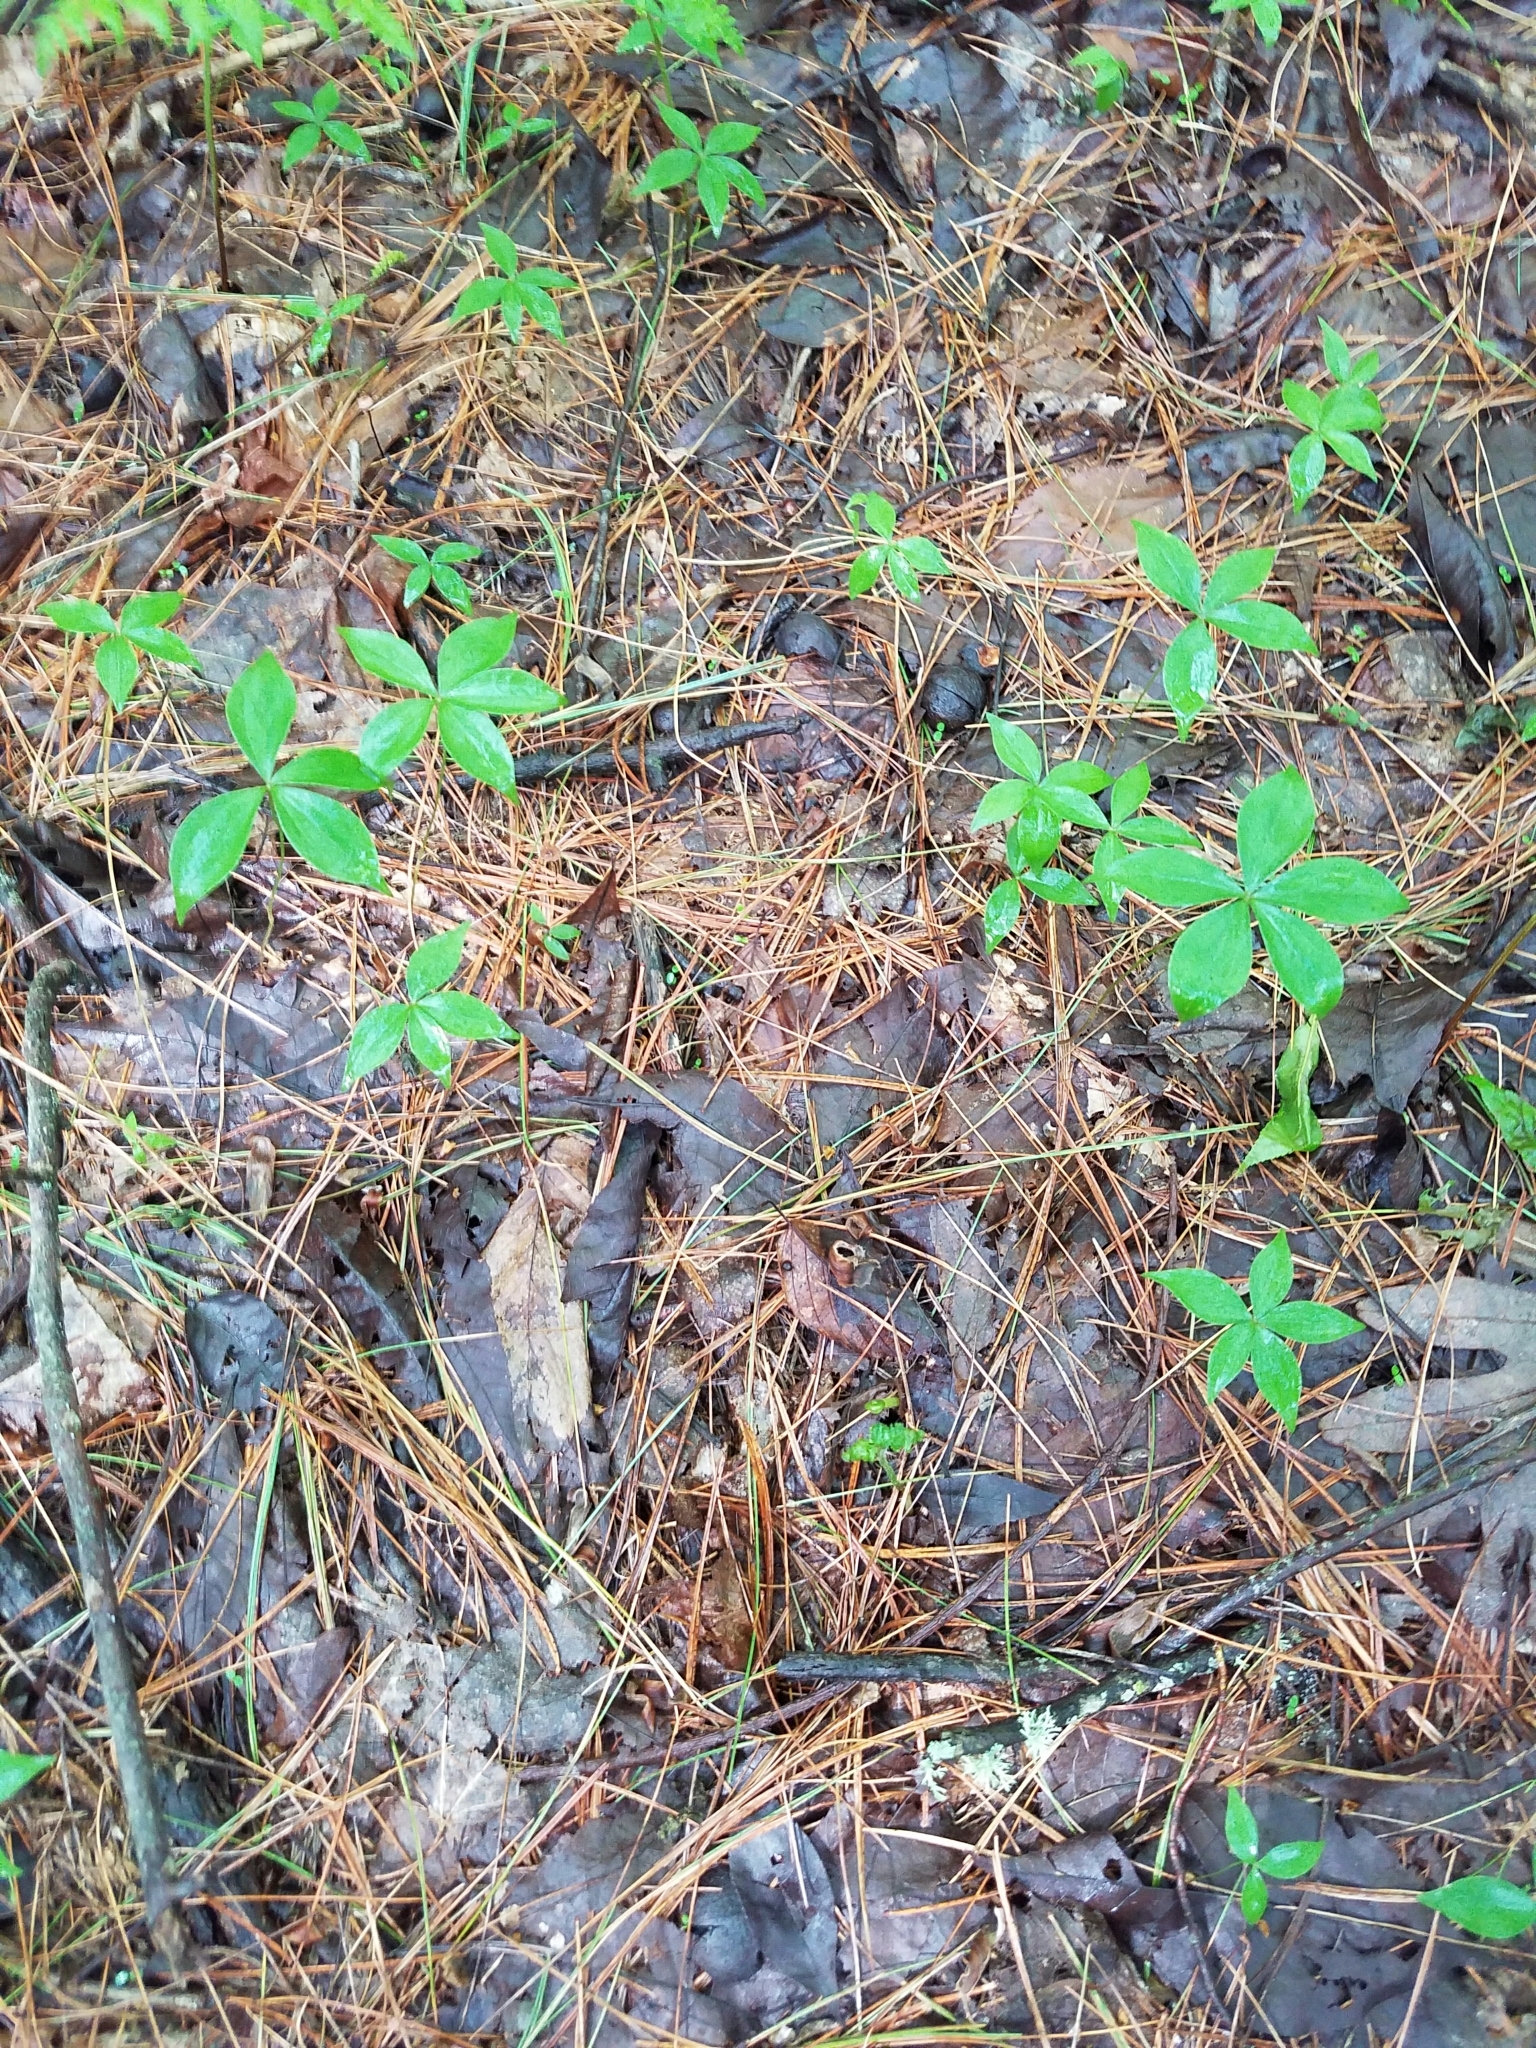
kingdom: Plantae
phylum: Tracheophyta
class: Liliopsida
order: Liliales
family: Liliaceae
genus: Medeola
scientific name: Medeola virginiana
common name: Indian cucumber-root
